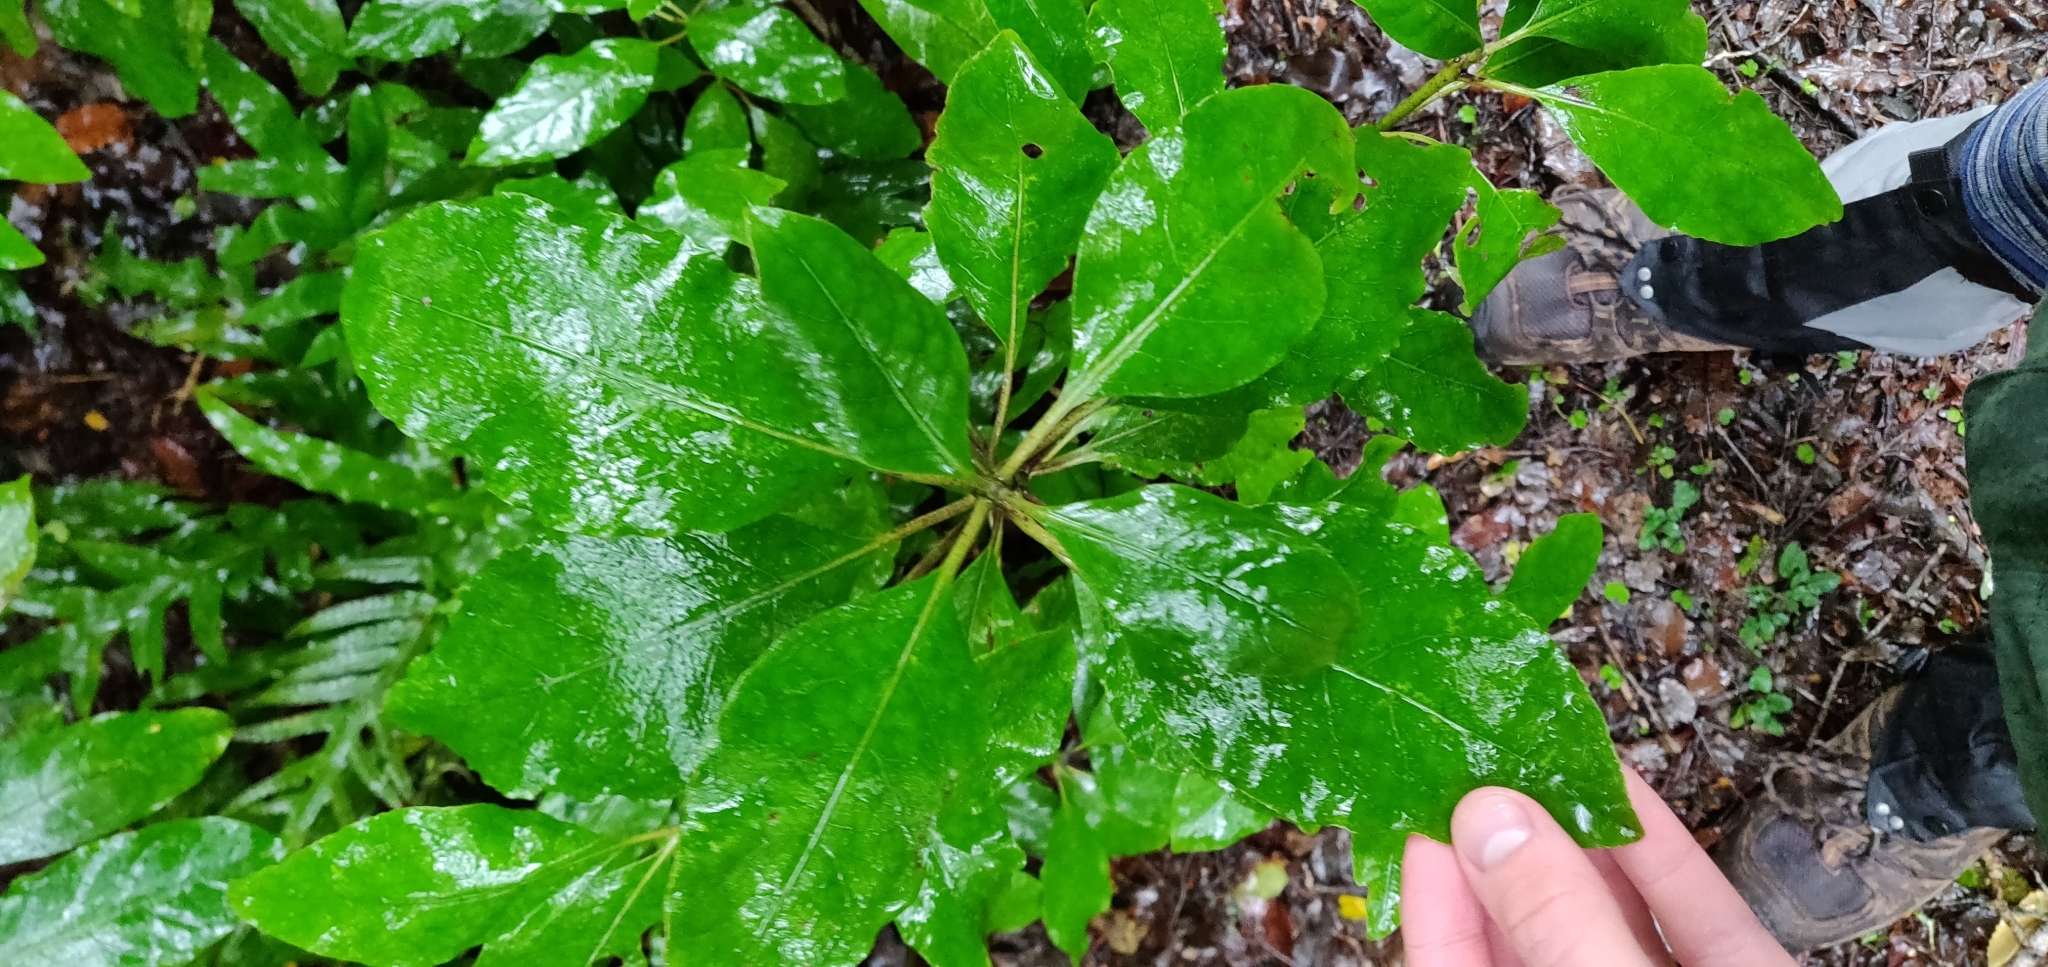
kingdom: Plantae
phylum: Tracheophyta
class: Magnoliopsida
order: Gentianales
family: Rubiaceae
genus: Coprosma
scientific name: Coprosma autumnalis
